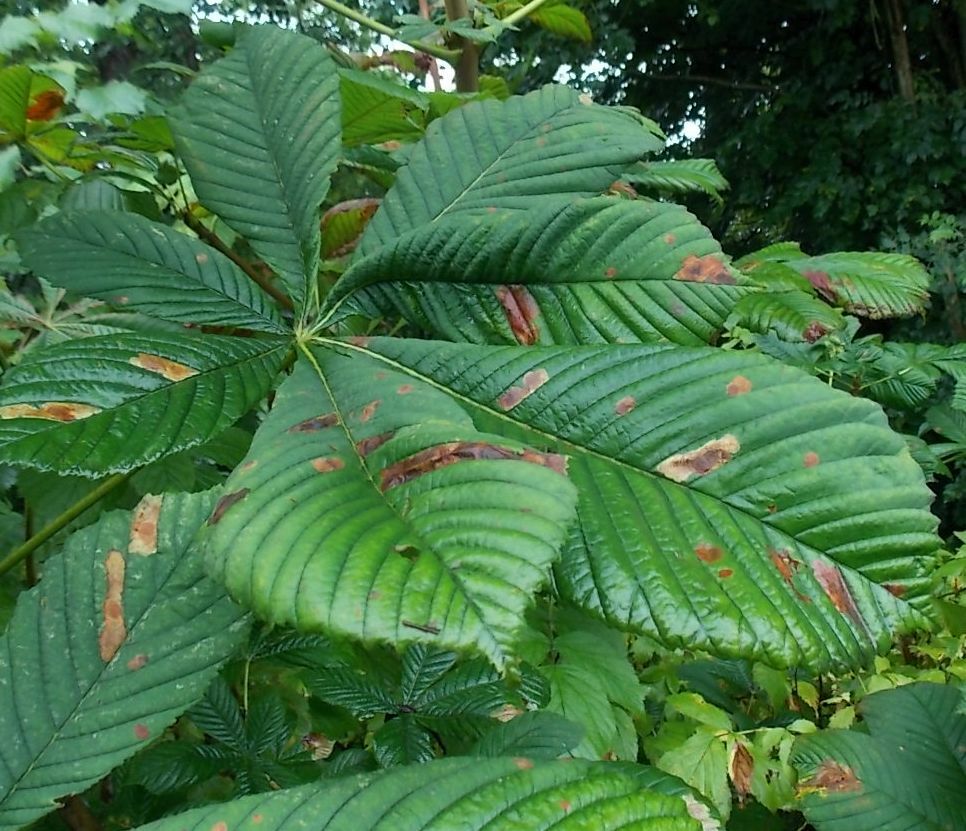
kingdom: Animalia
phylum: Arthropoda
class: Insecta
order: Lepidoptera
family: Gracillariidae
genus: Cameraria
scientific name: Cameraria ohridella
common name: Horse-chestnut leaf-miner
